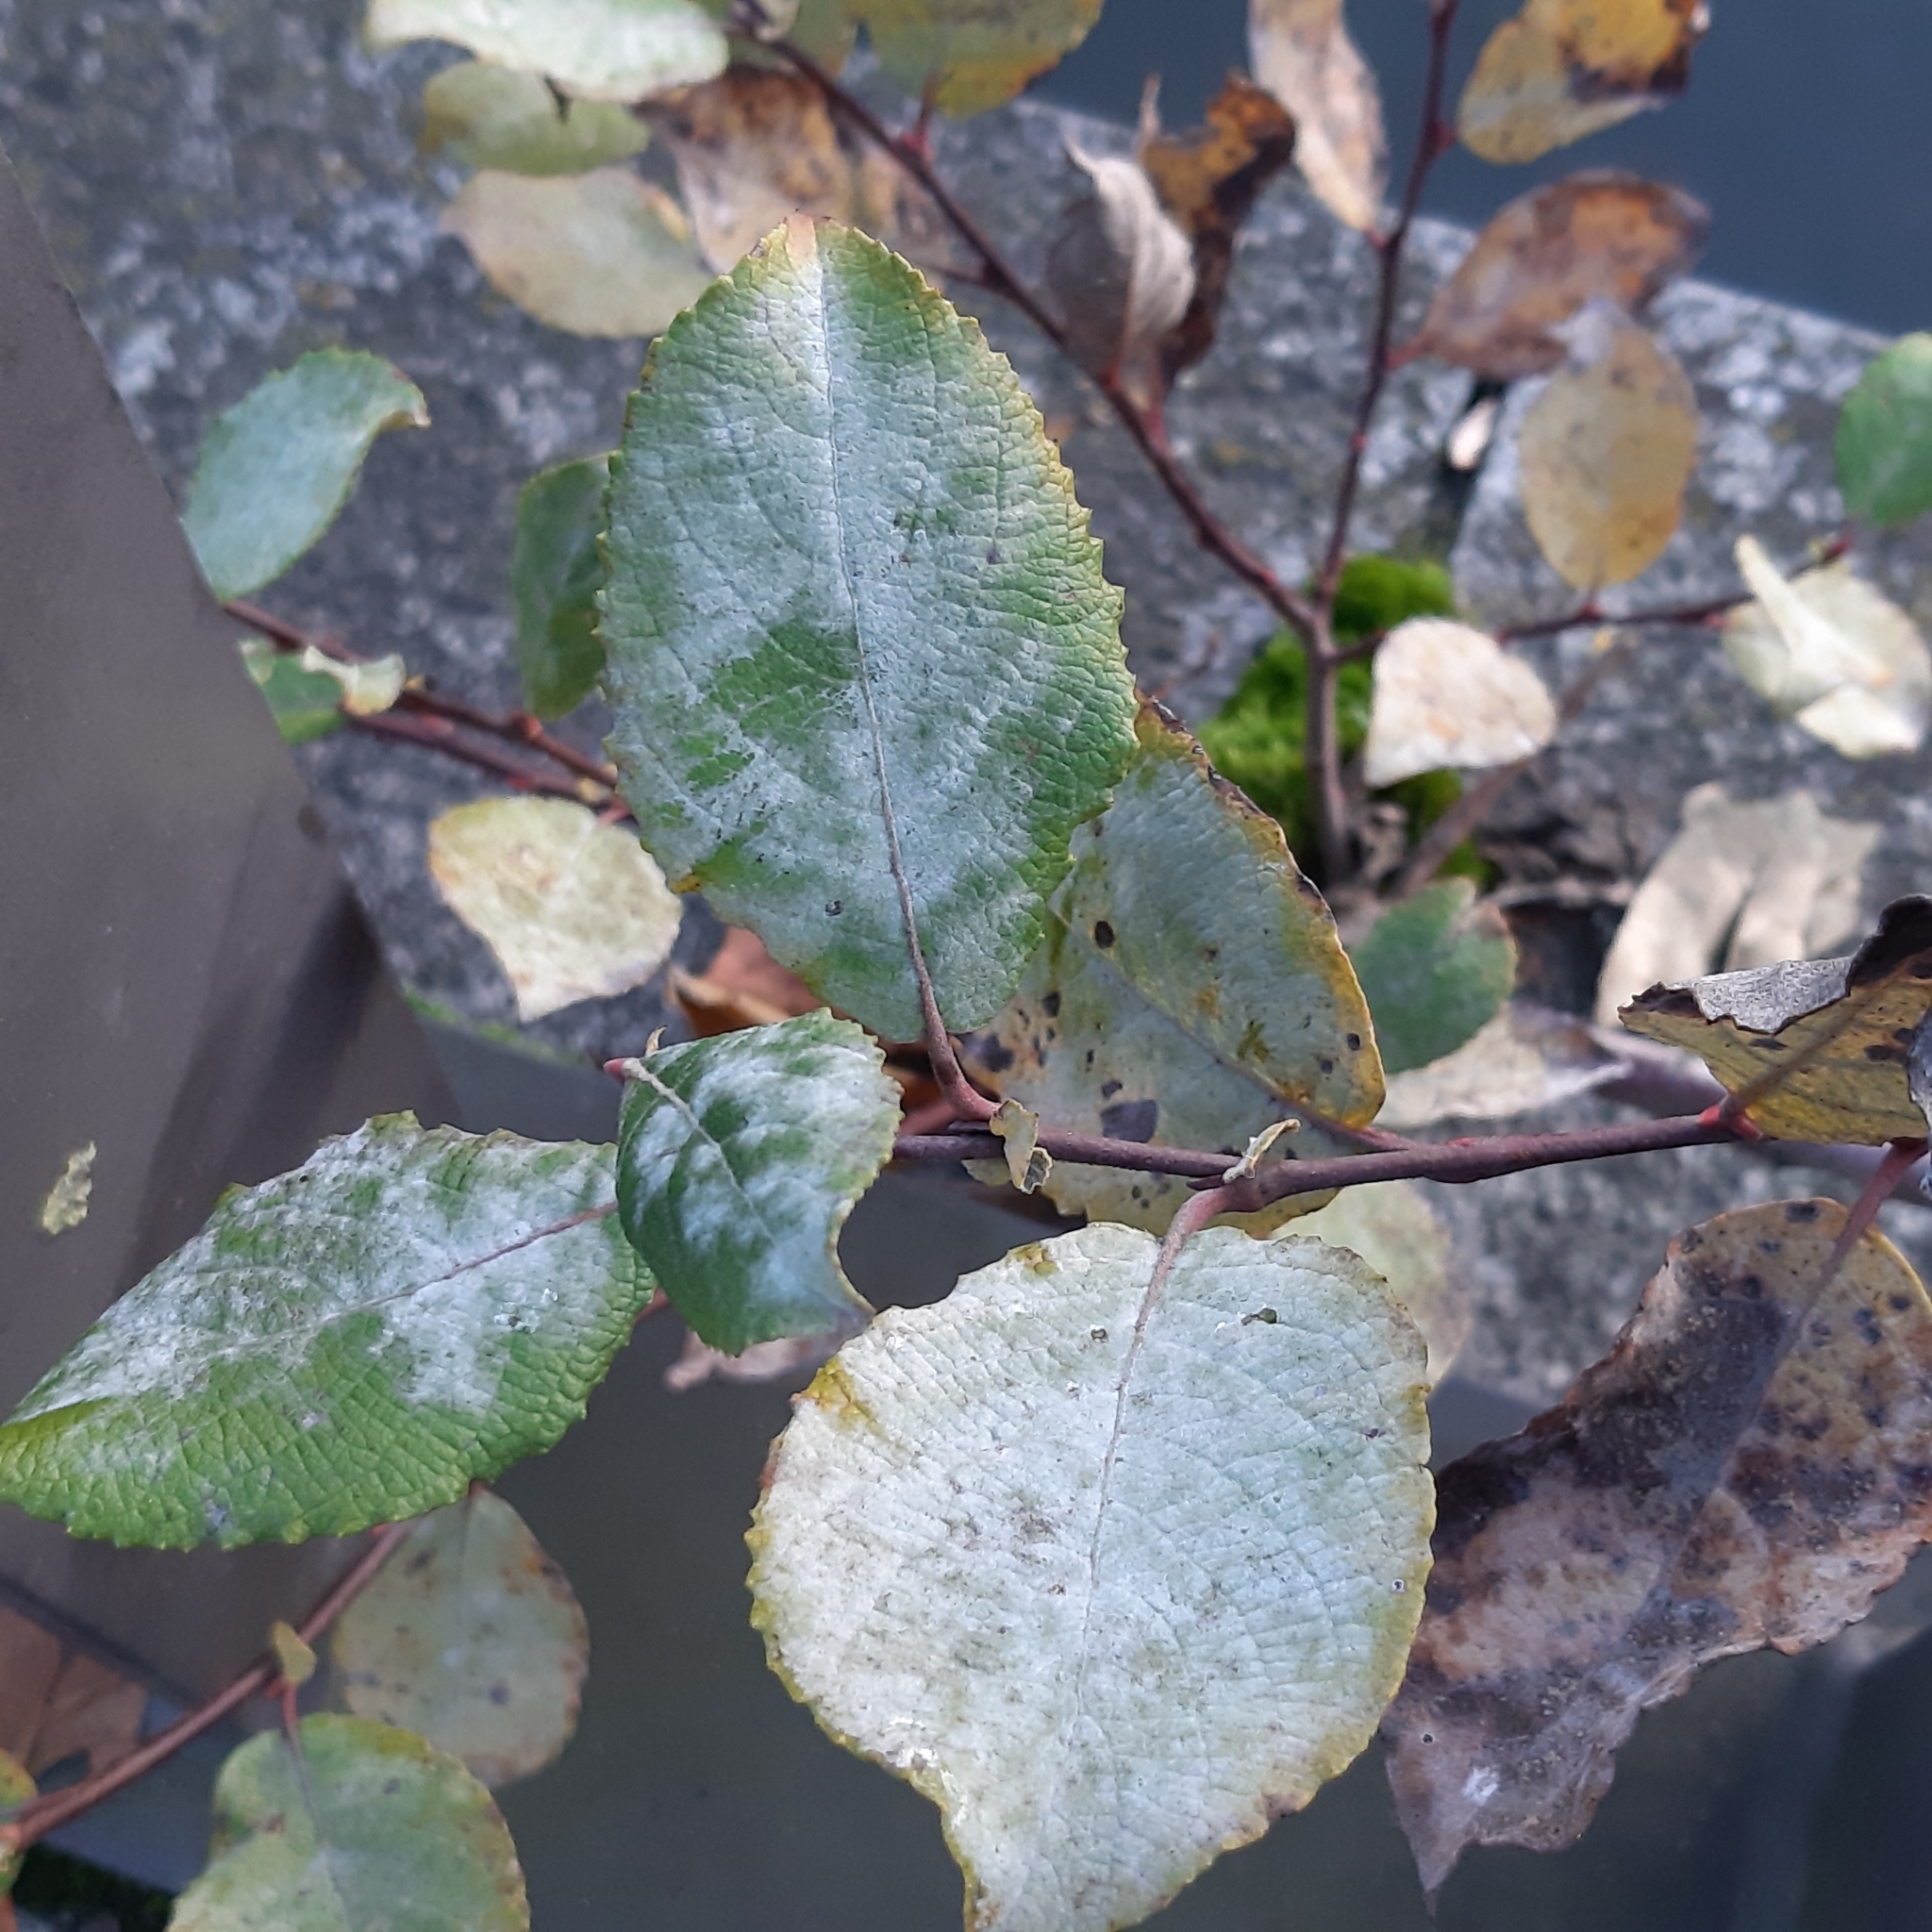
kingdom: Plantae
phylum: Tracheophyta
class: Magnoliopsida
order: Malpighiales
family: Salicaceae
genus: Salix
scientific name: Salix caprea
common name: Goat willow
